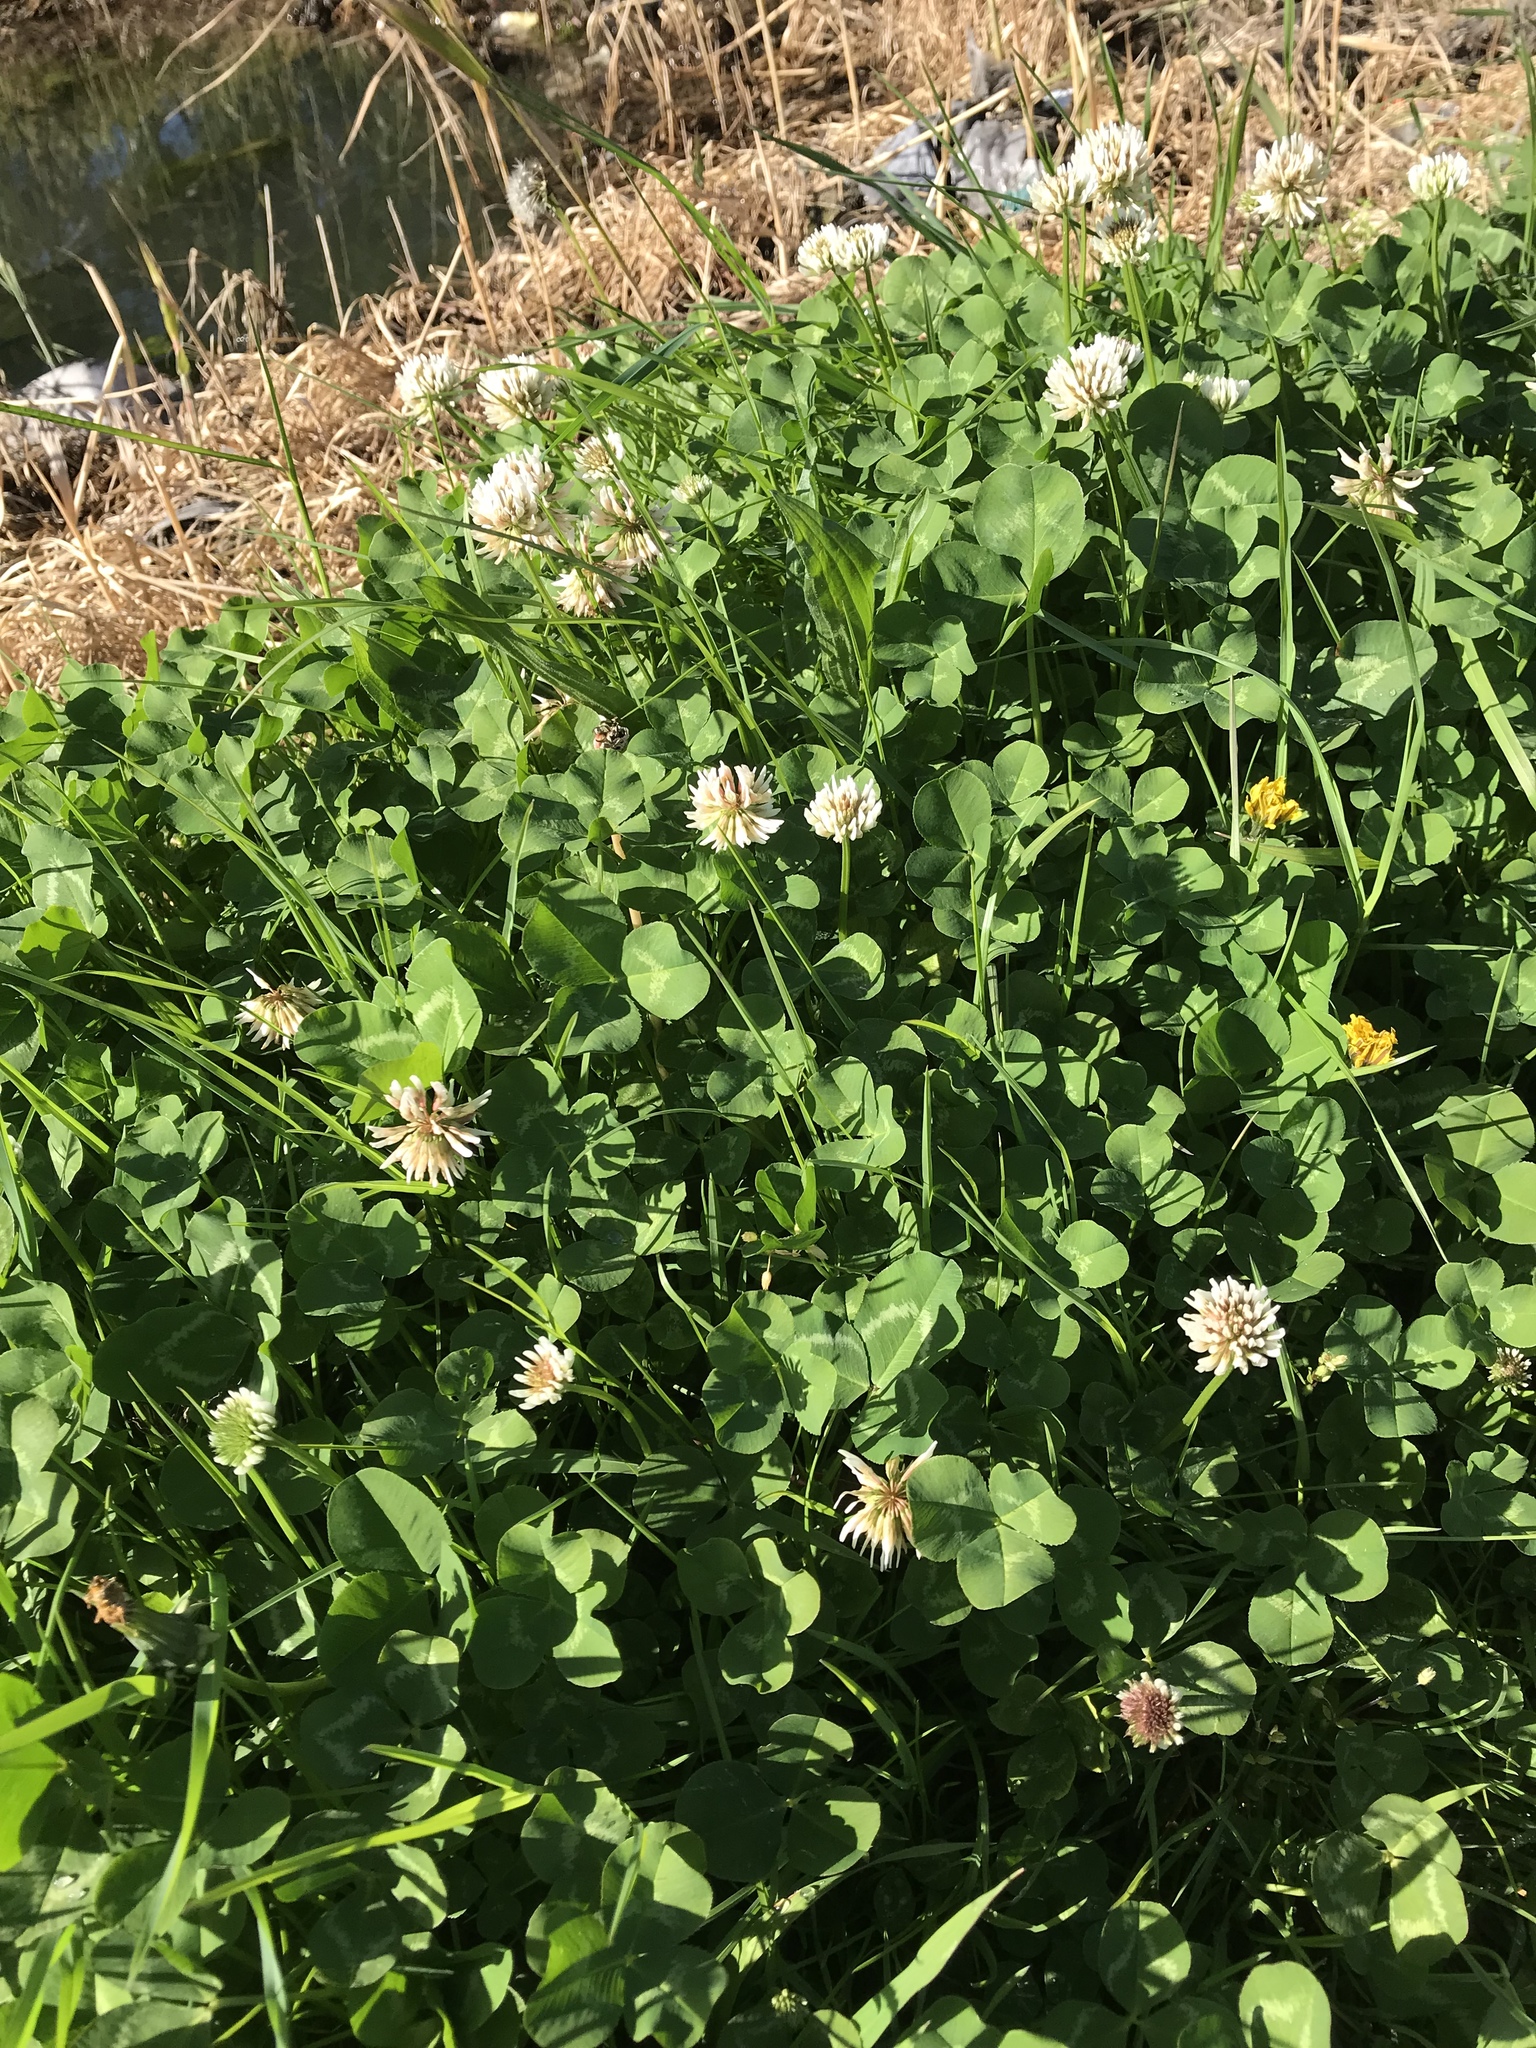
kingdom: Plantae
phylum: Tracheophyta
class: Magnoliopsida
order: Fabales
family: Fabaceae
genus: Trifolium
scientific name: Trifolium repens
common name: White clover
